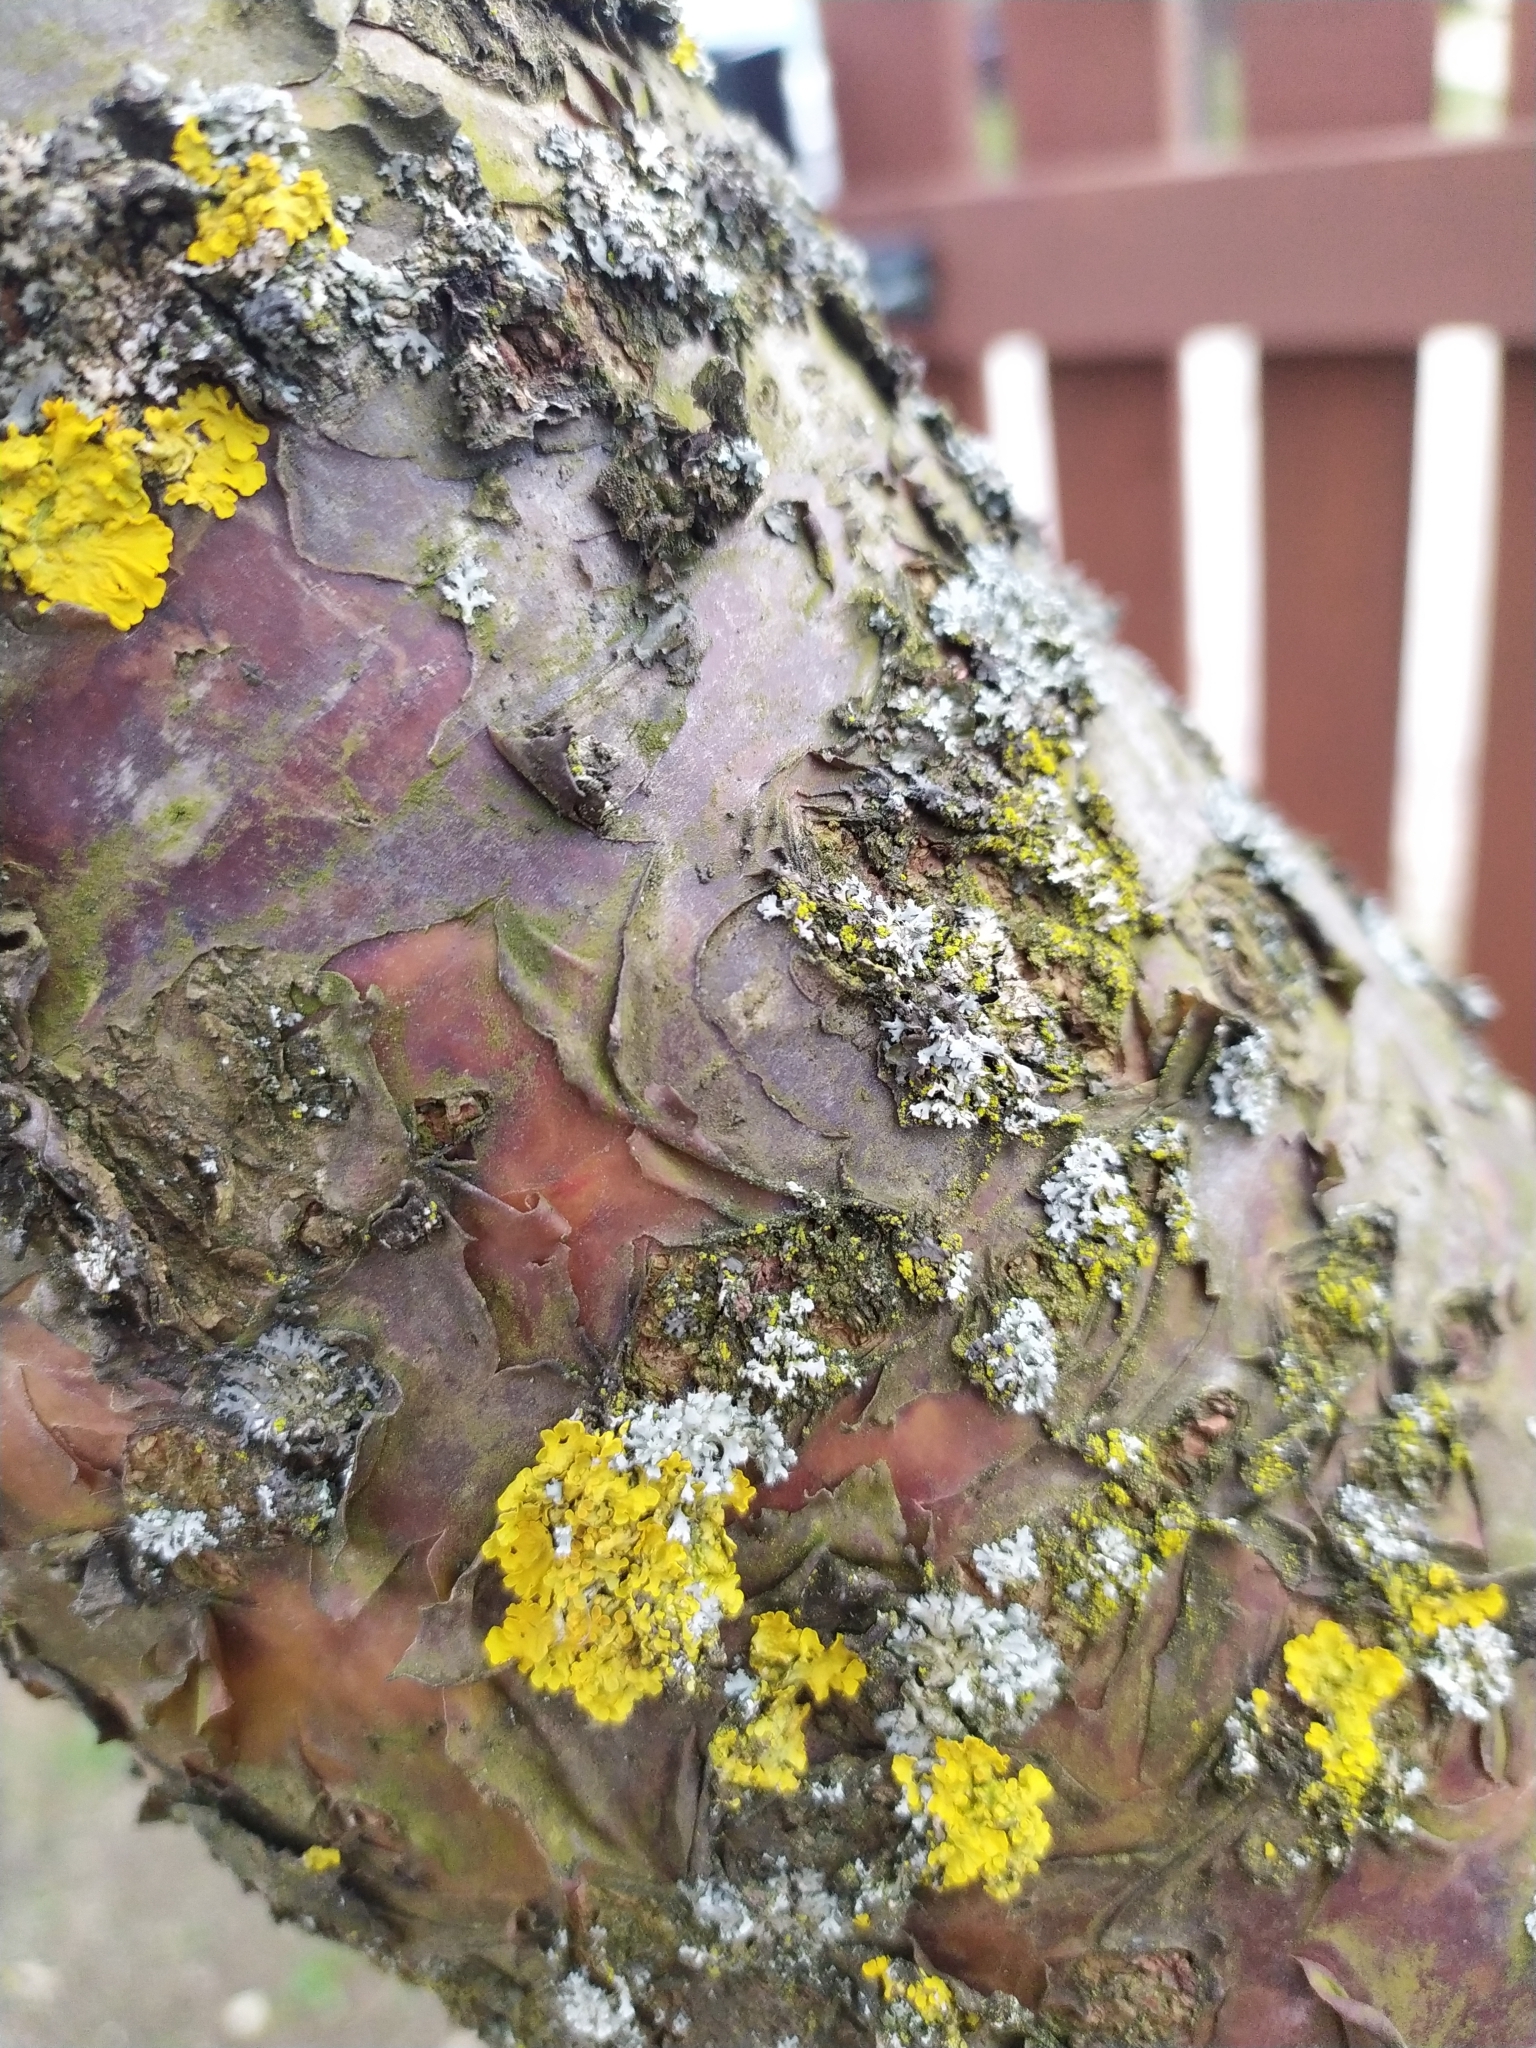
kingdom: Fungi
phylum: Ascomycota
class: Lecanoromycetes
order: Teloschistales
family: Teloschistaceae
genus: Xanthoria
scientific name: Xanthoria parietina
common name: Common orange lichen
